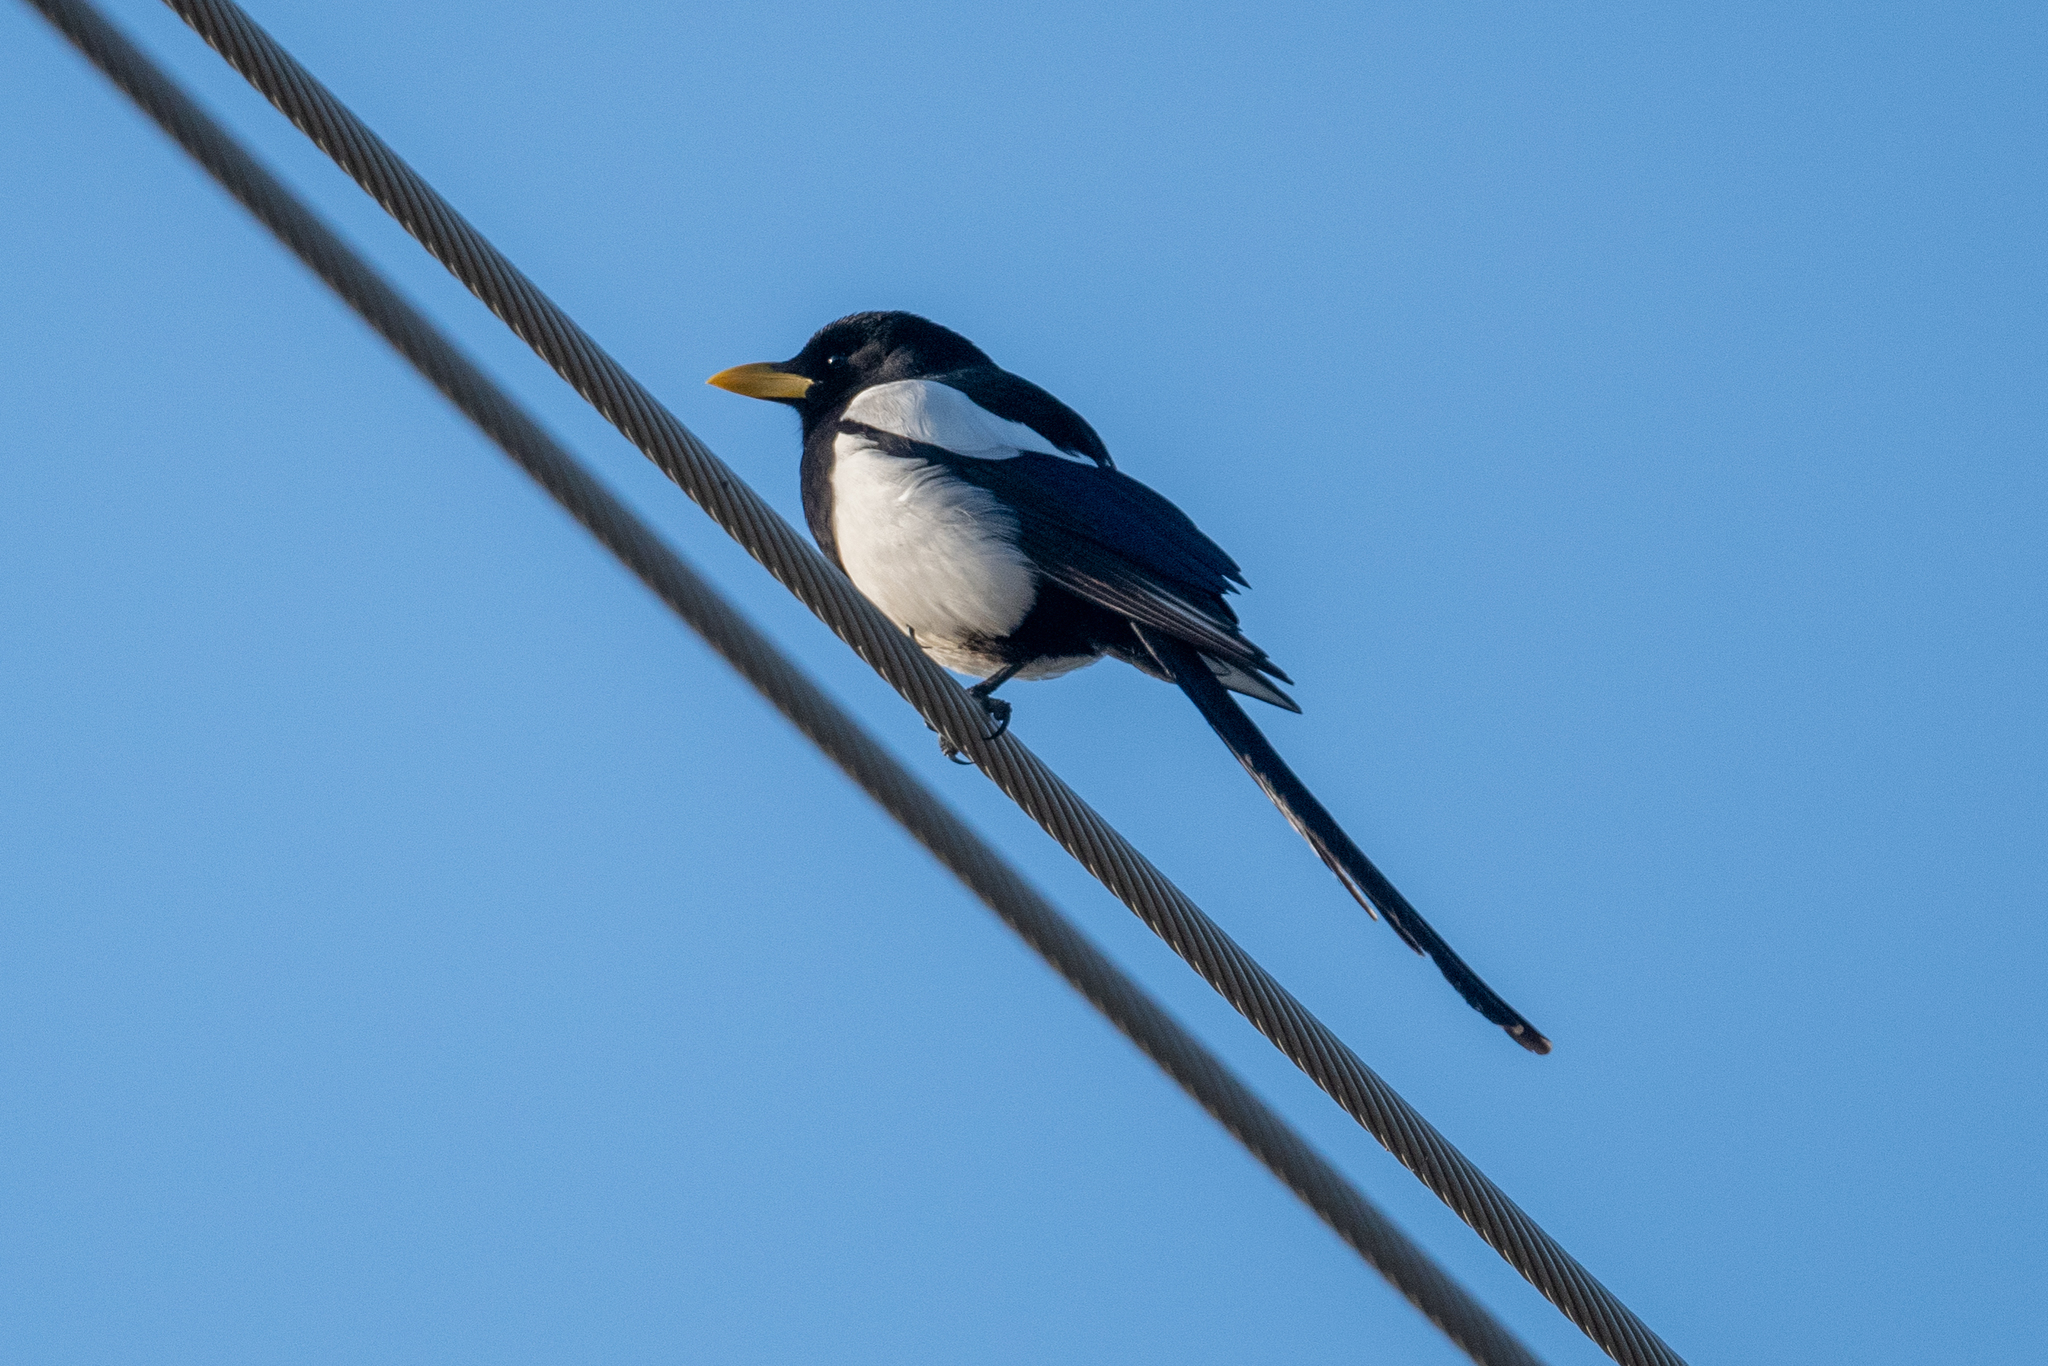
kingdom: Animalia
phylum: Chordata
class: Aves
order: Passeriformes
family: Corvidae
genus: Pica
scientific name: Pica nuttalli
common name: Yellow-billed magpie
